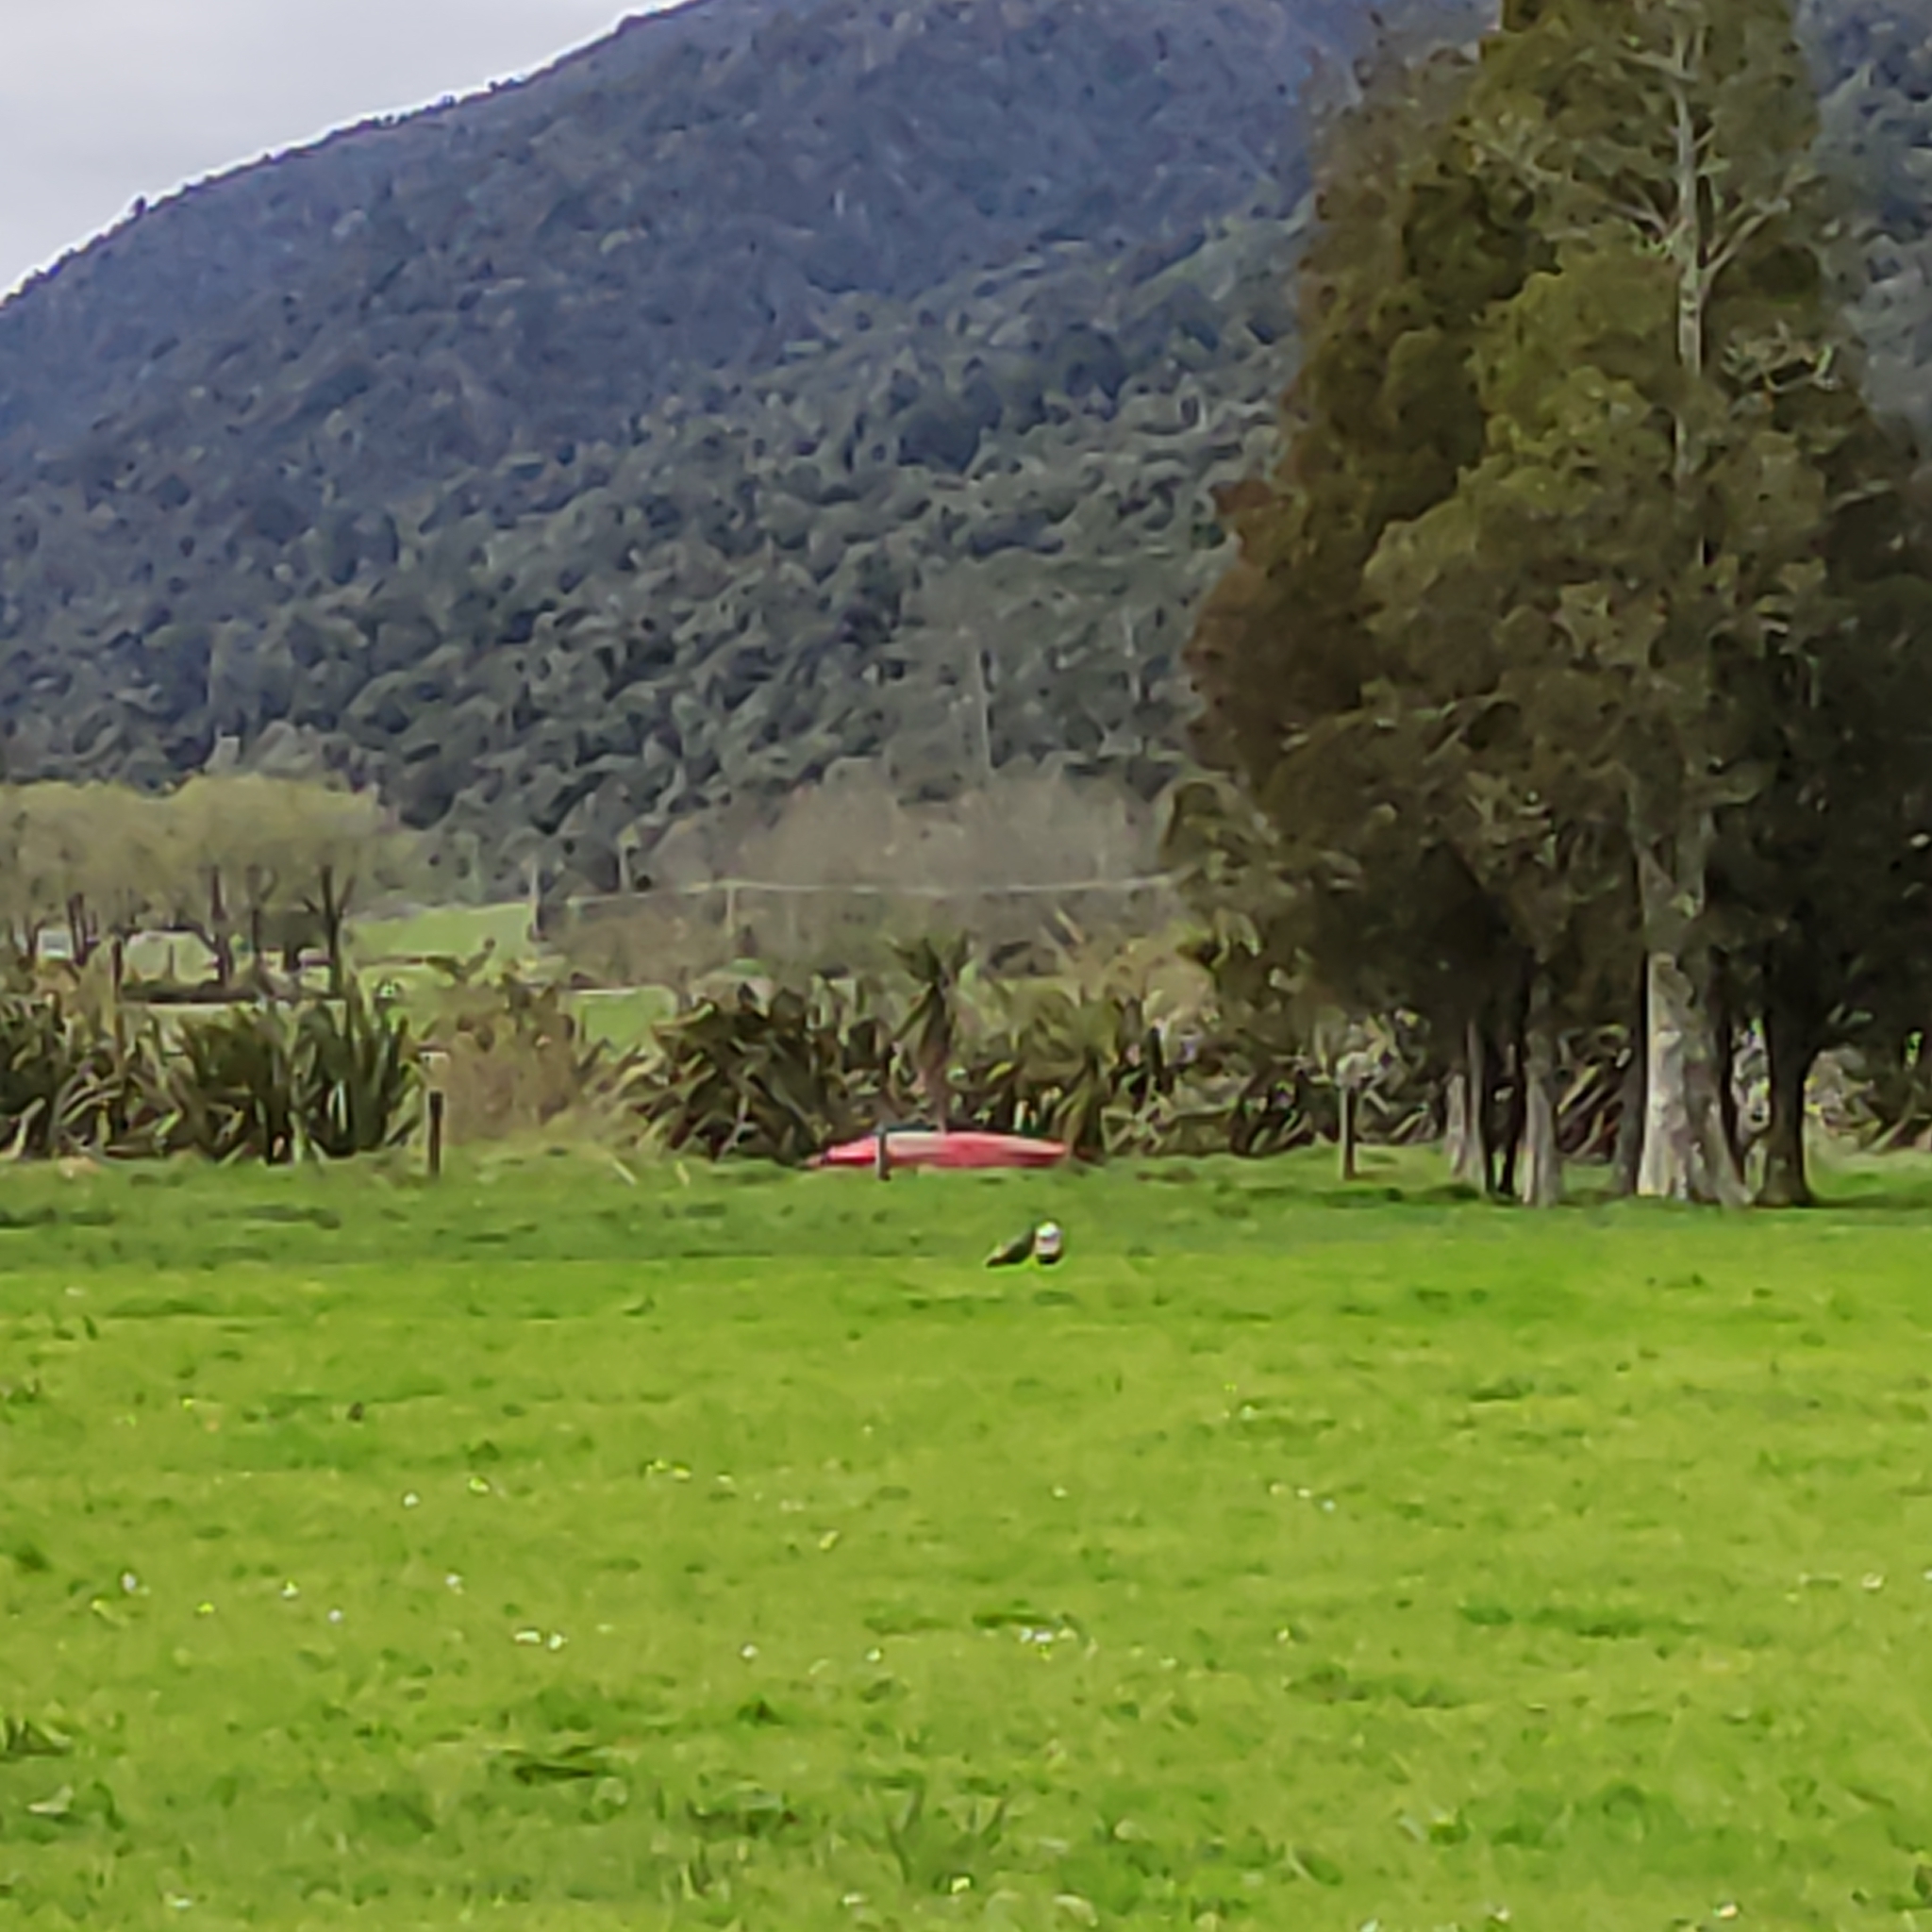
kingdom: Animalia
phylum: Chordata
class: Aves
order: Anseriformes
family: Anatidae
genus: Tadorna
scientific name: Tadorna variegata
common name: Paradise shelduck
